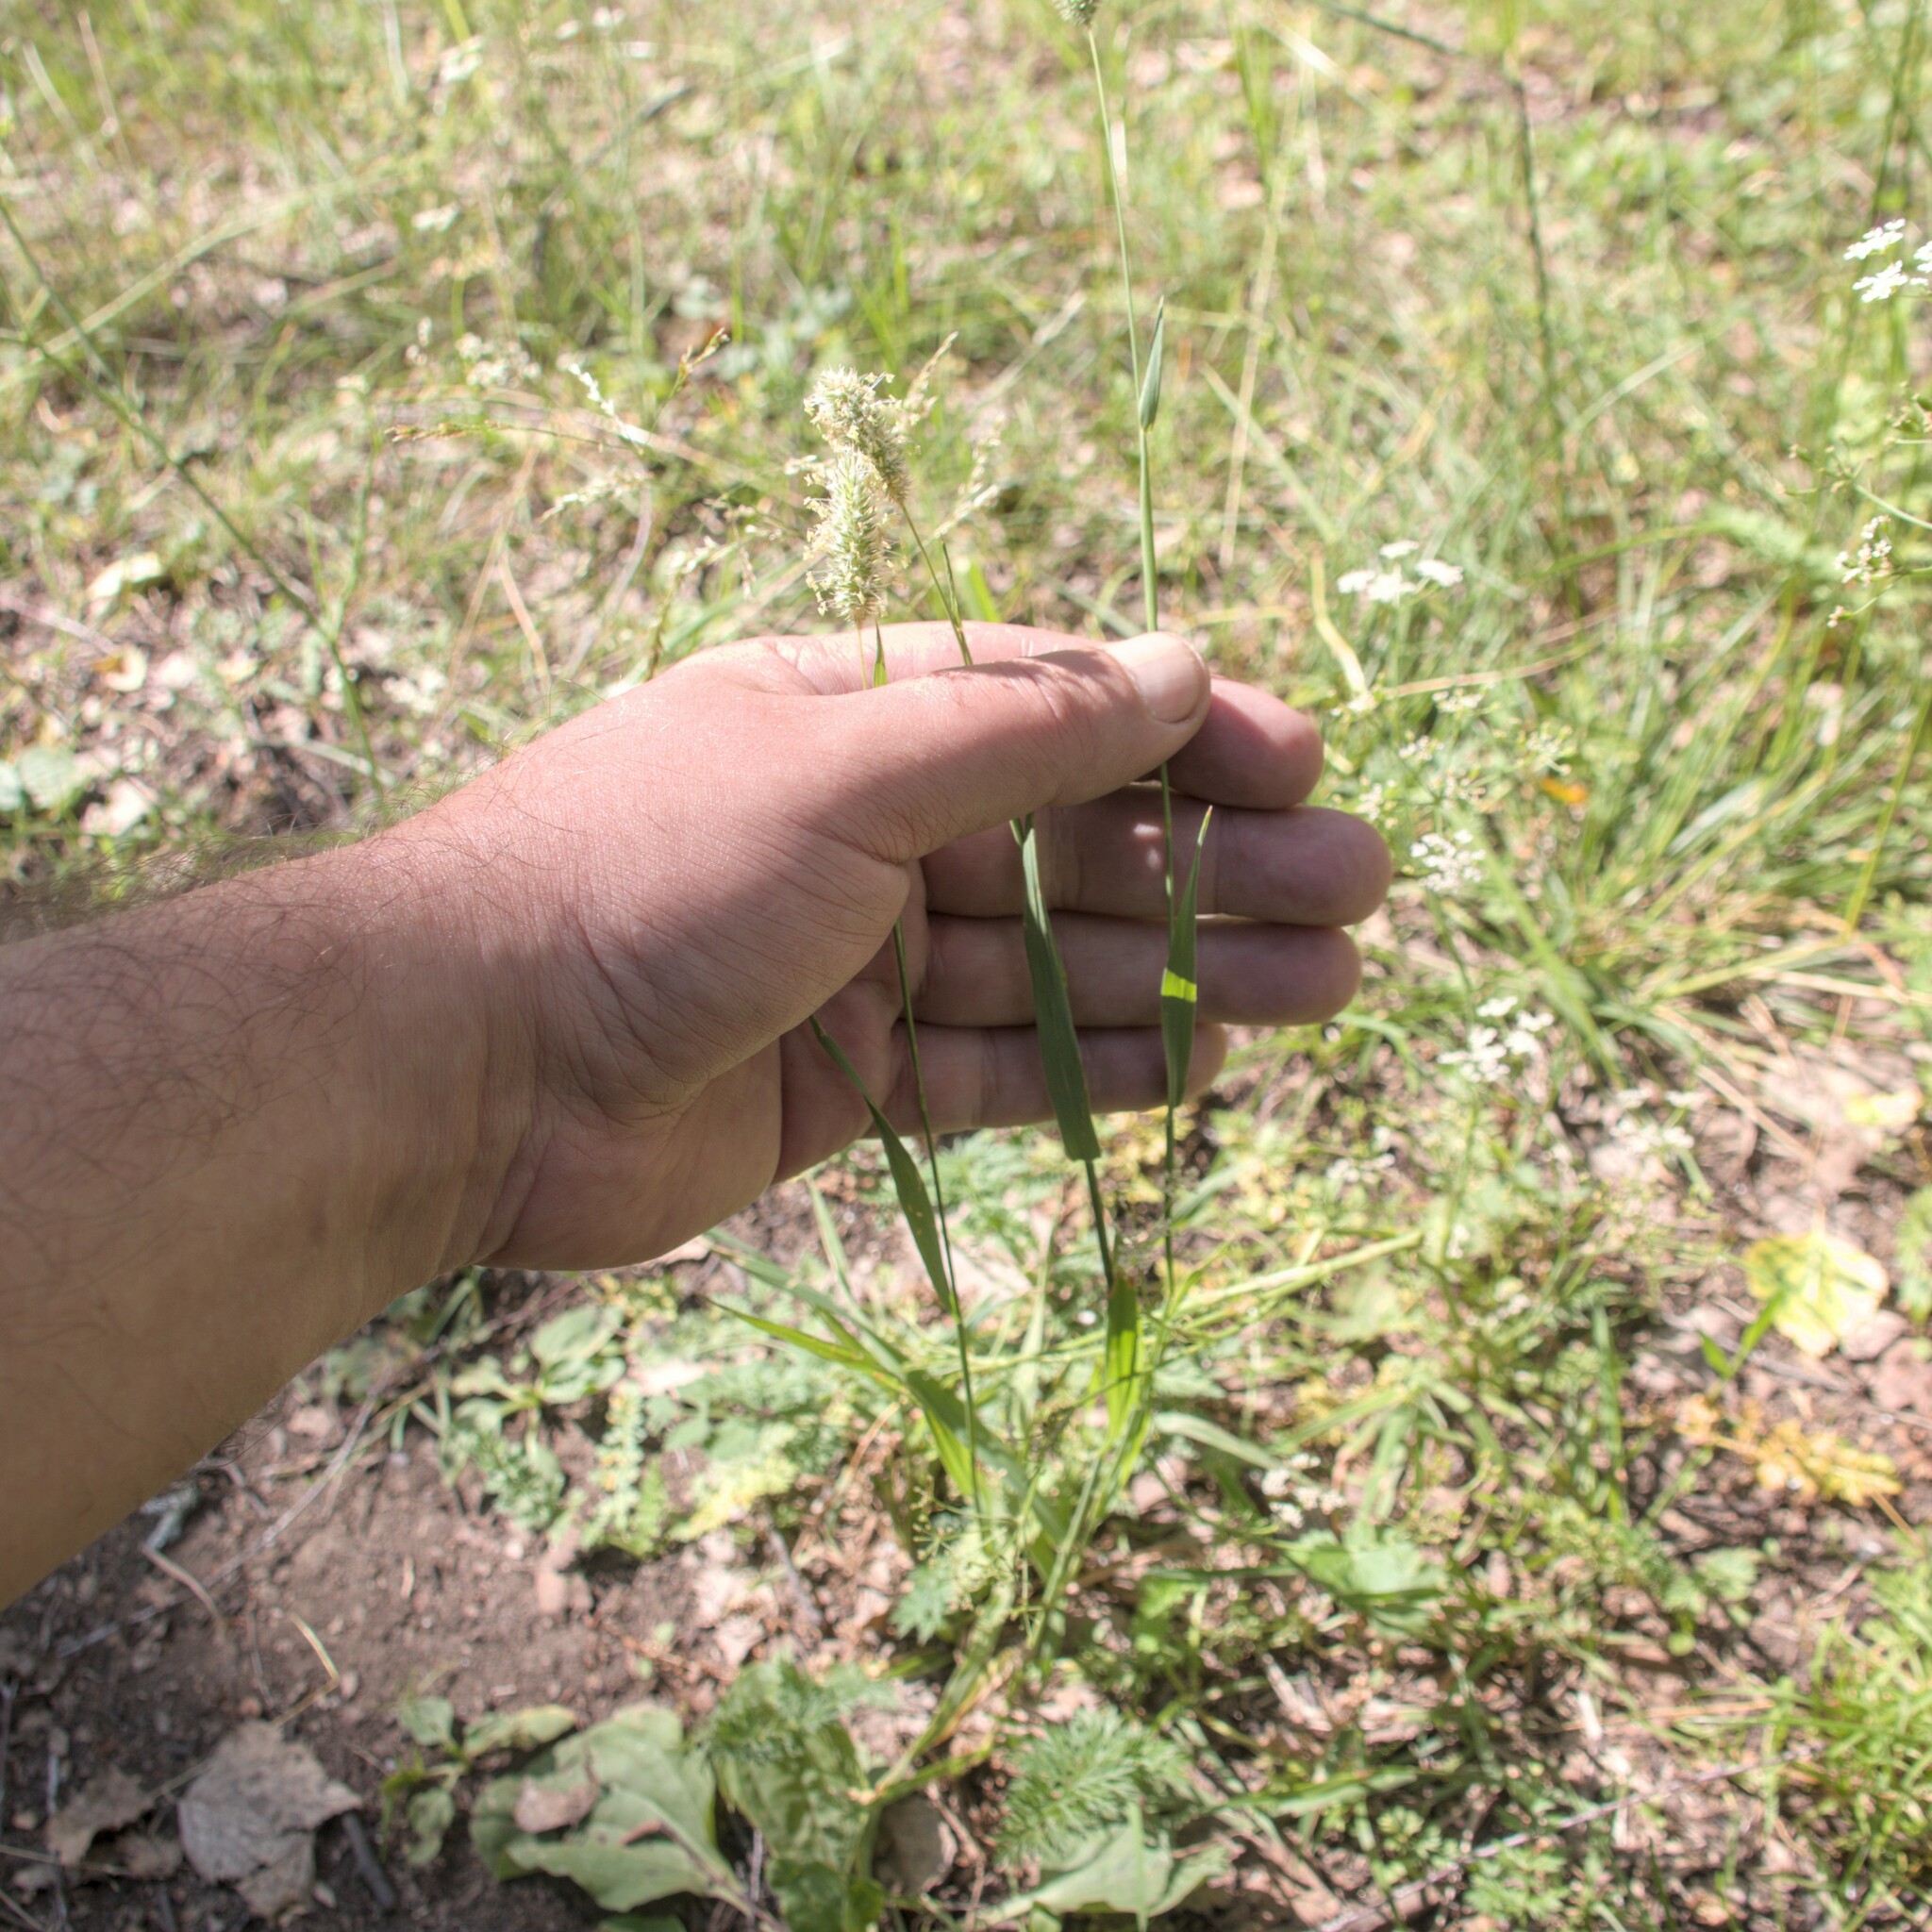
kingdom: Plantae
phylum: Tracheophyta
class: Liliopsida
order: Poales
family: Poaceae
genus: Phleum
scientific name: Phleum pratense
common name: Timothy grass
